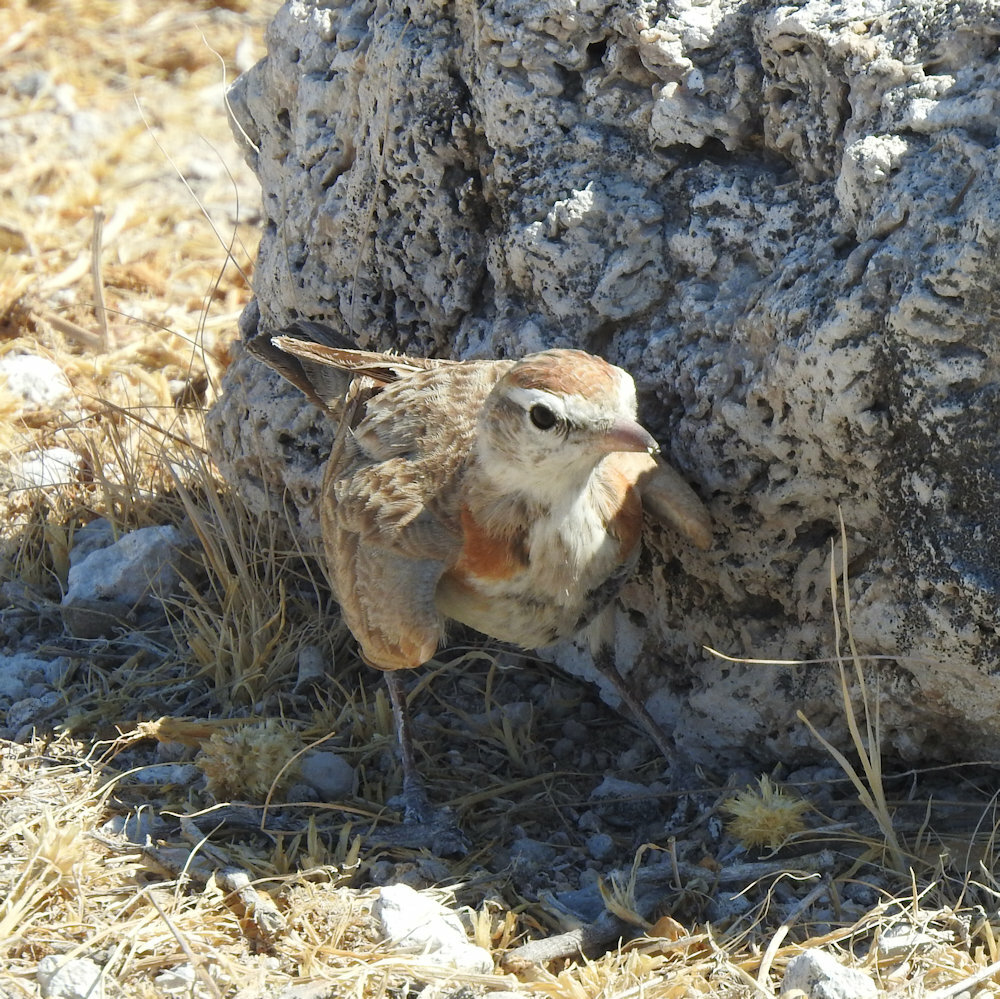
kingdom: Animalia
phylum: Chordata
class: Aves
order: Passeriformes
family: Alaudidae
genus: Calandrella
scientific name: Calandrella cinerea
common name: Red-capped lark
